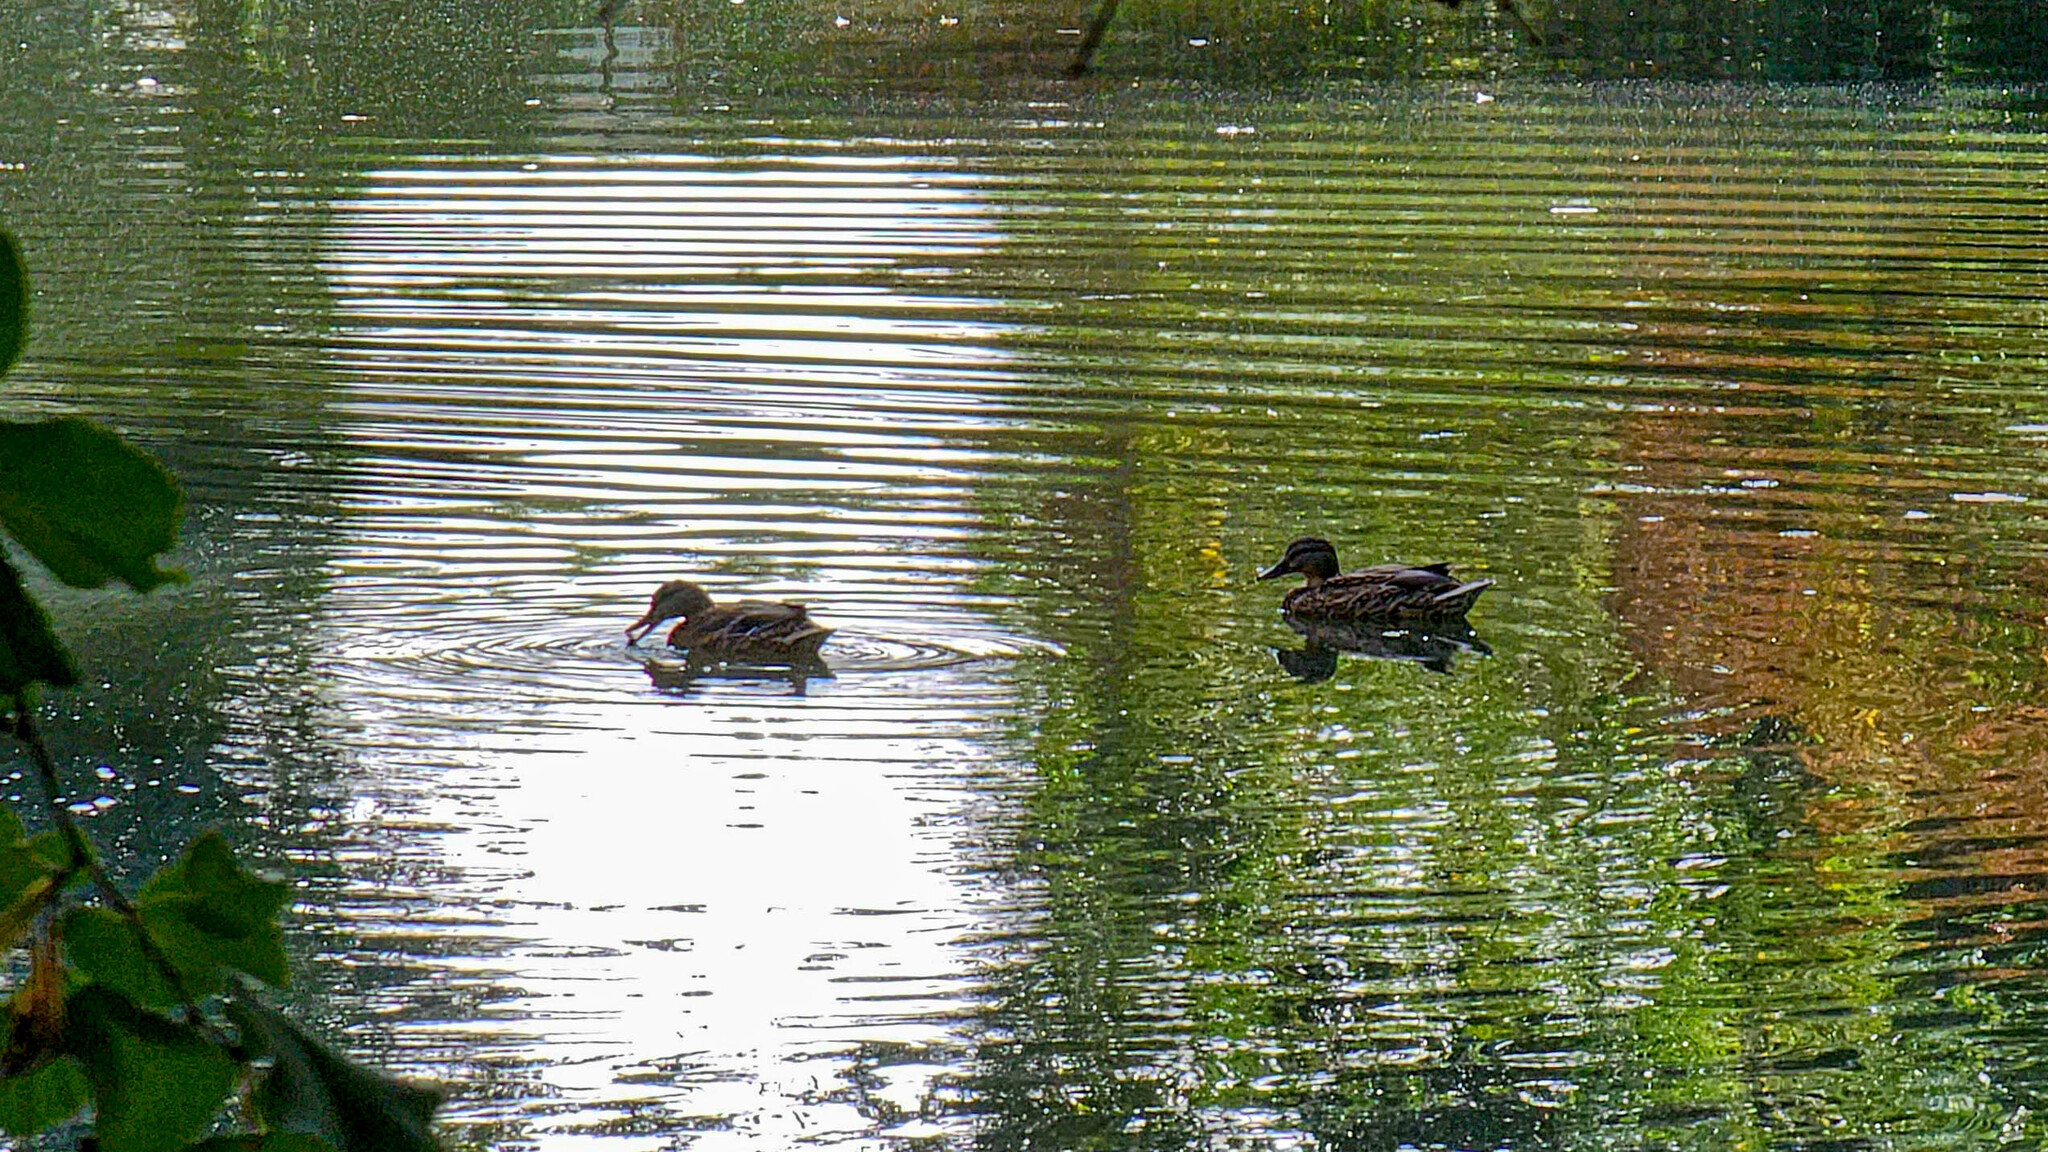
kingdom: Animalia
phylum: Chordata
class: Aves
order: Anseriformes
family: Anatidae
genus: Anas
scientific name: Anas platyrhynchos
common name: Mallard
